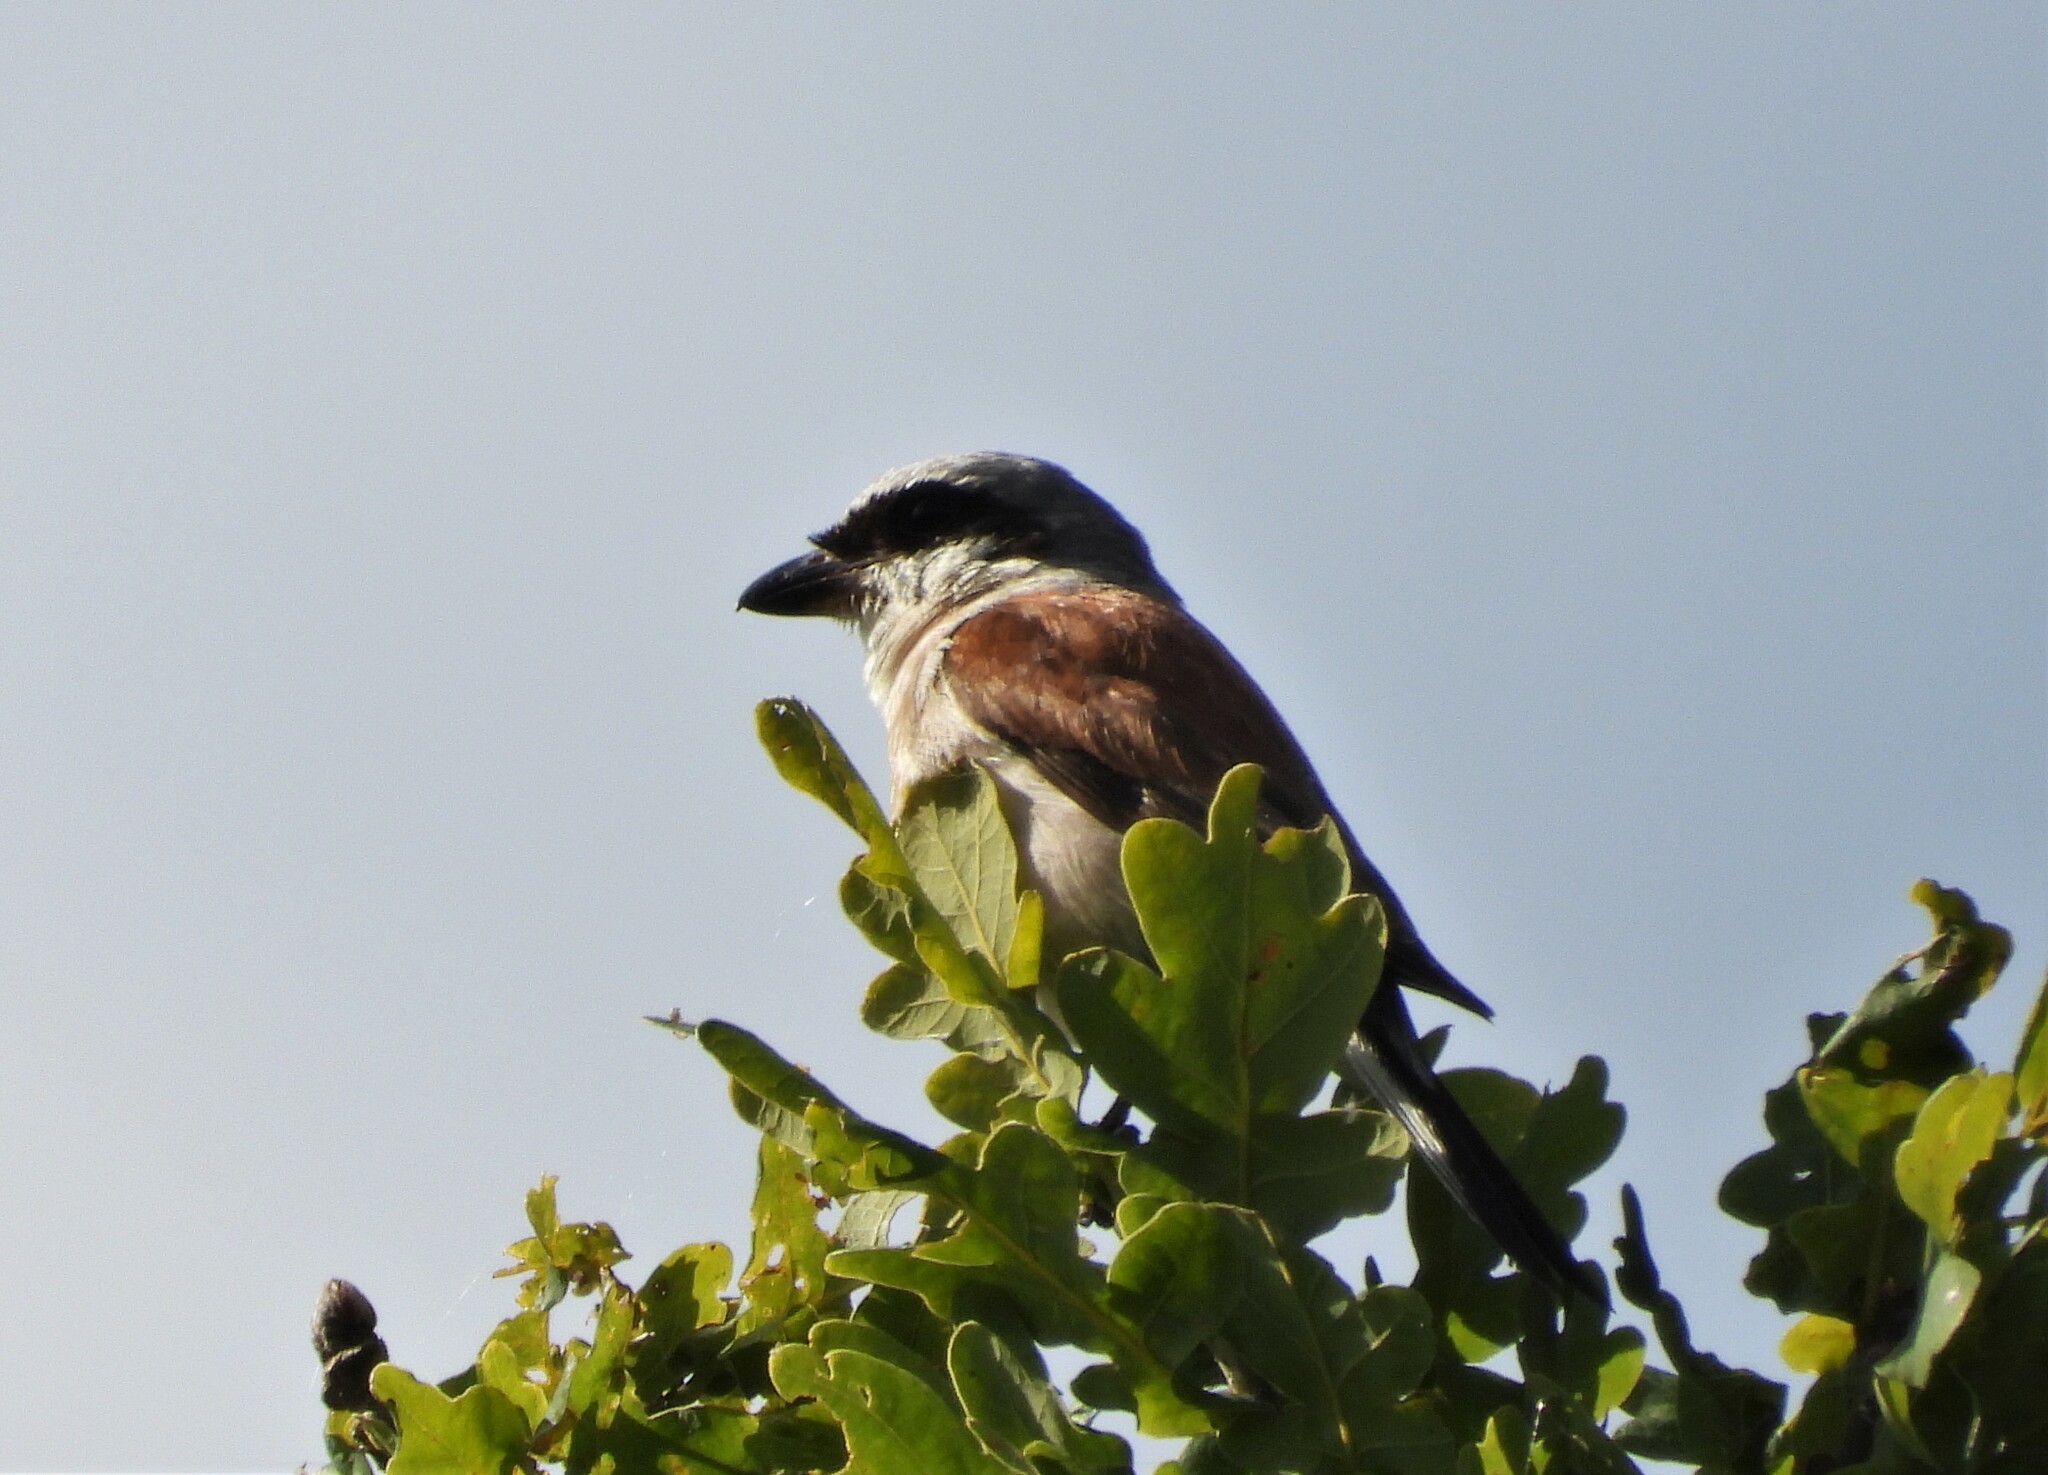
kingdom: Animalia
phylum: Chordata
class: Aves
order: Passeriformes
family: Laniidae
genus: Lanius
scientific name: Lanius collurio
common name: Red-backed shrike
